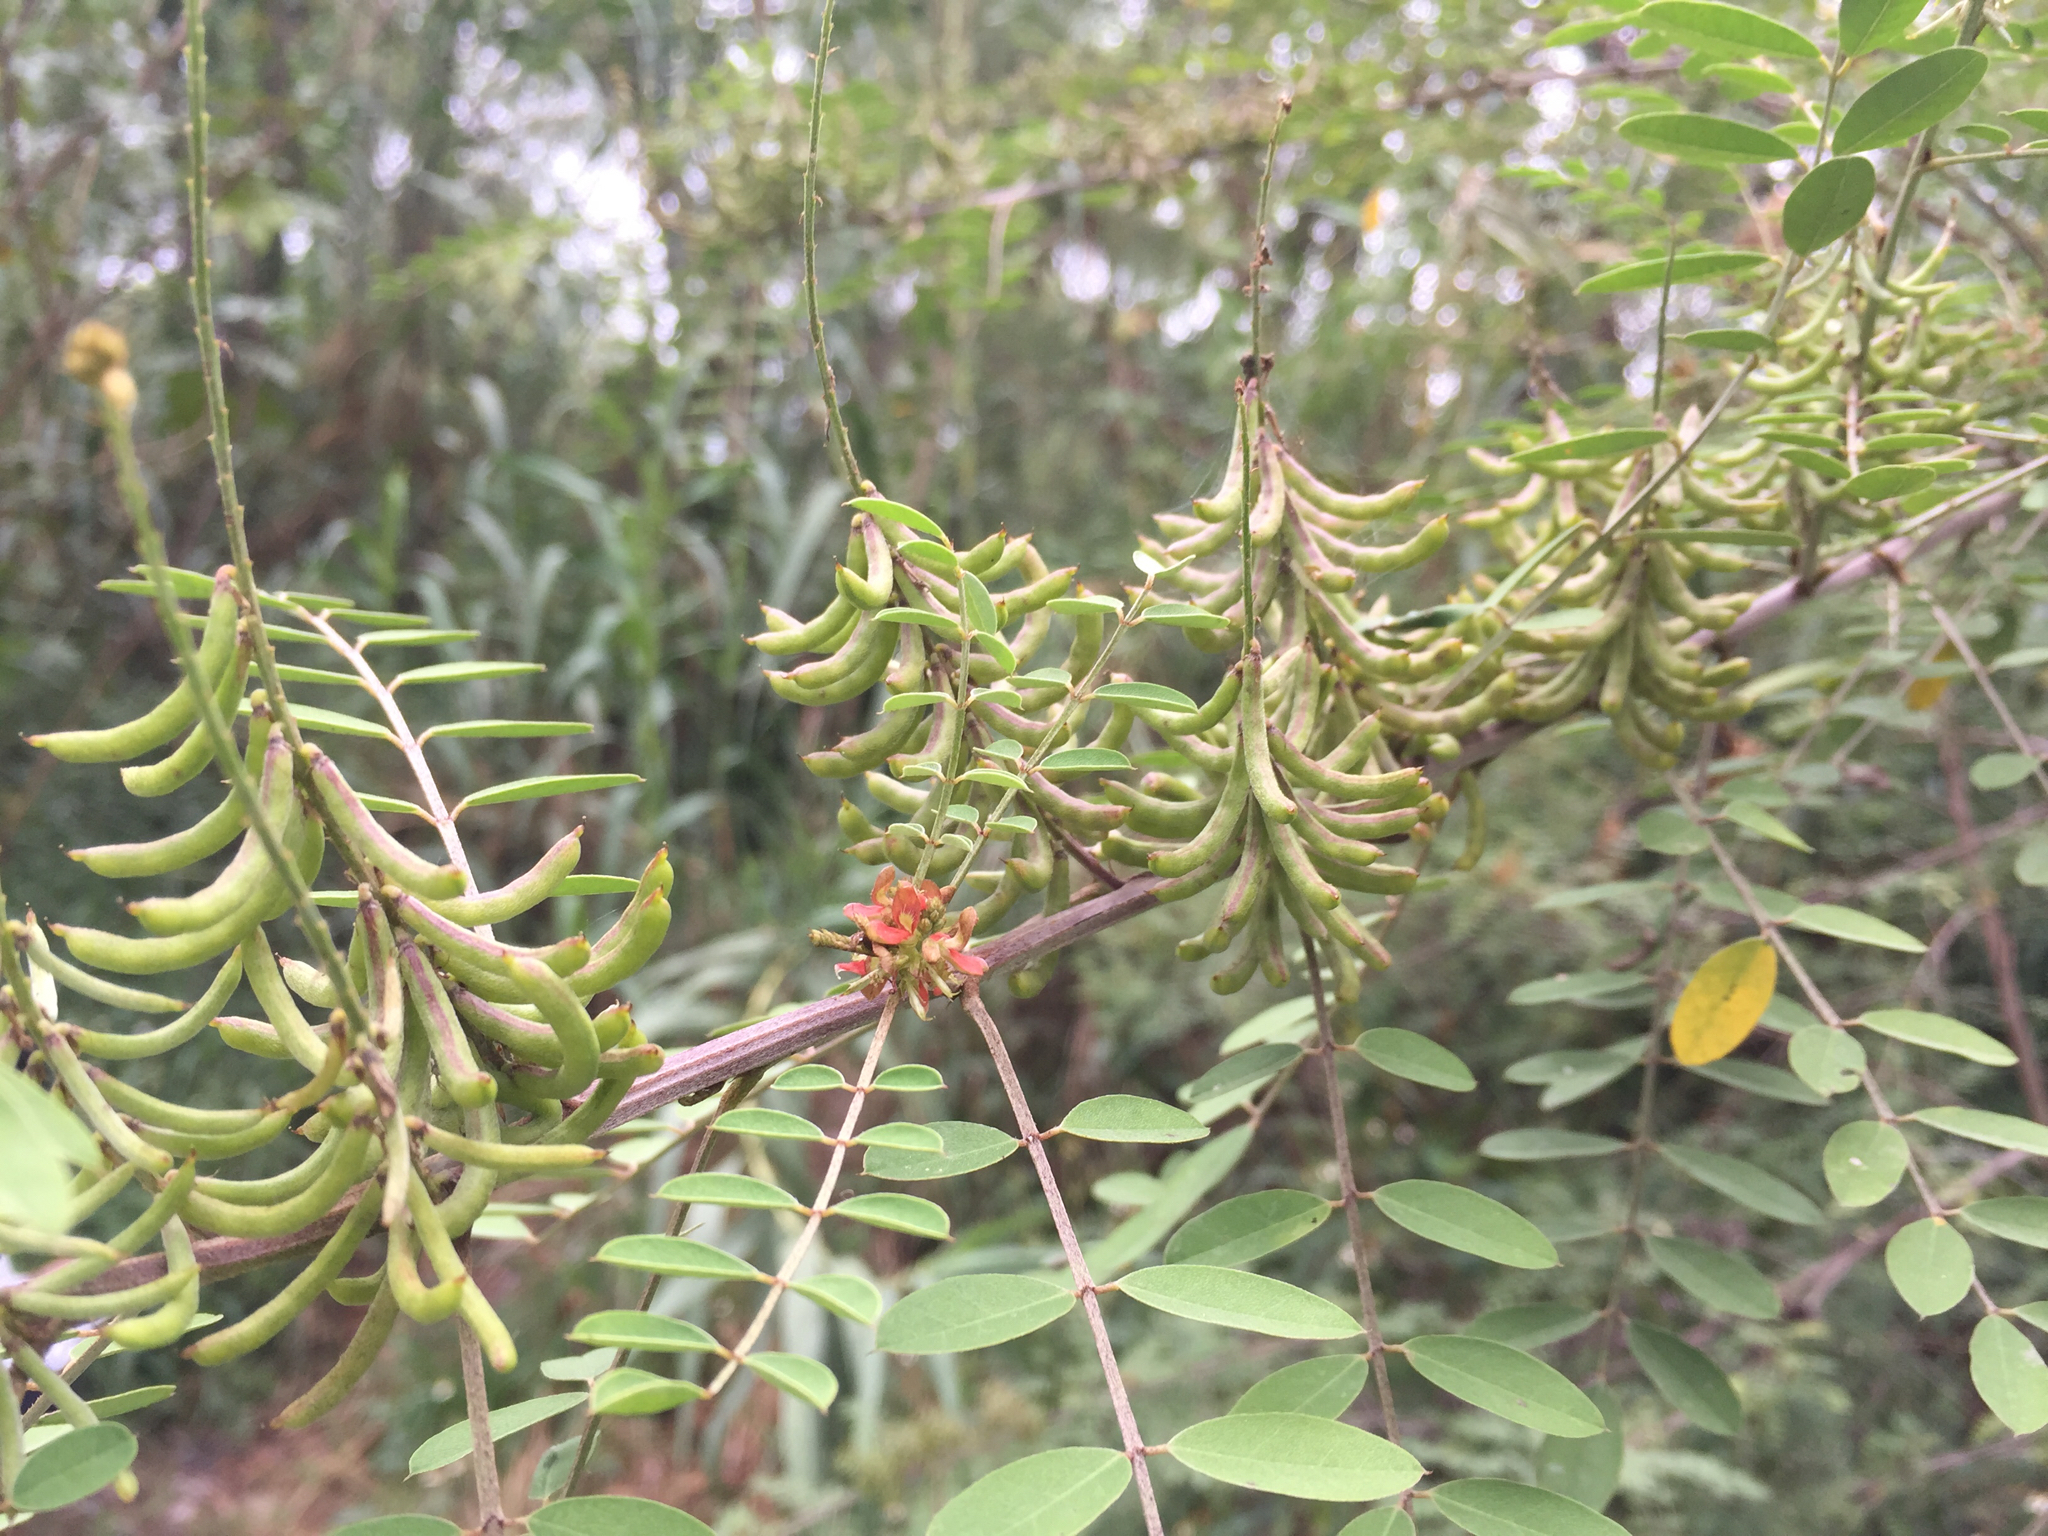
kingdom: Plantae
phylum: Tracheophyta
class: Magnoliopsida
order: Fabales
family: Fabaceae
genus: Indigofera
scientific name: Indigofera suffruticosa
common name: Anil de pasto
